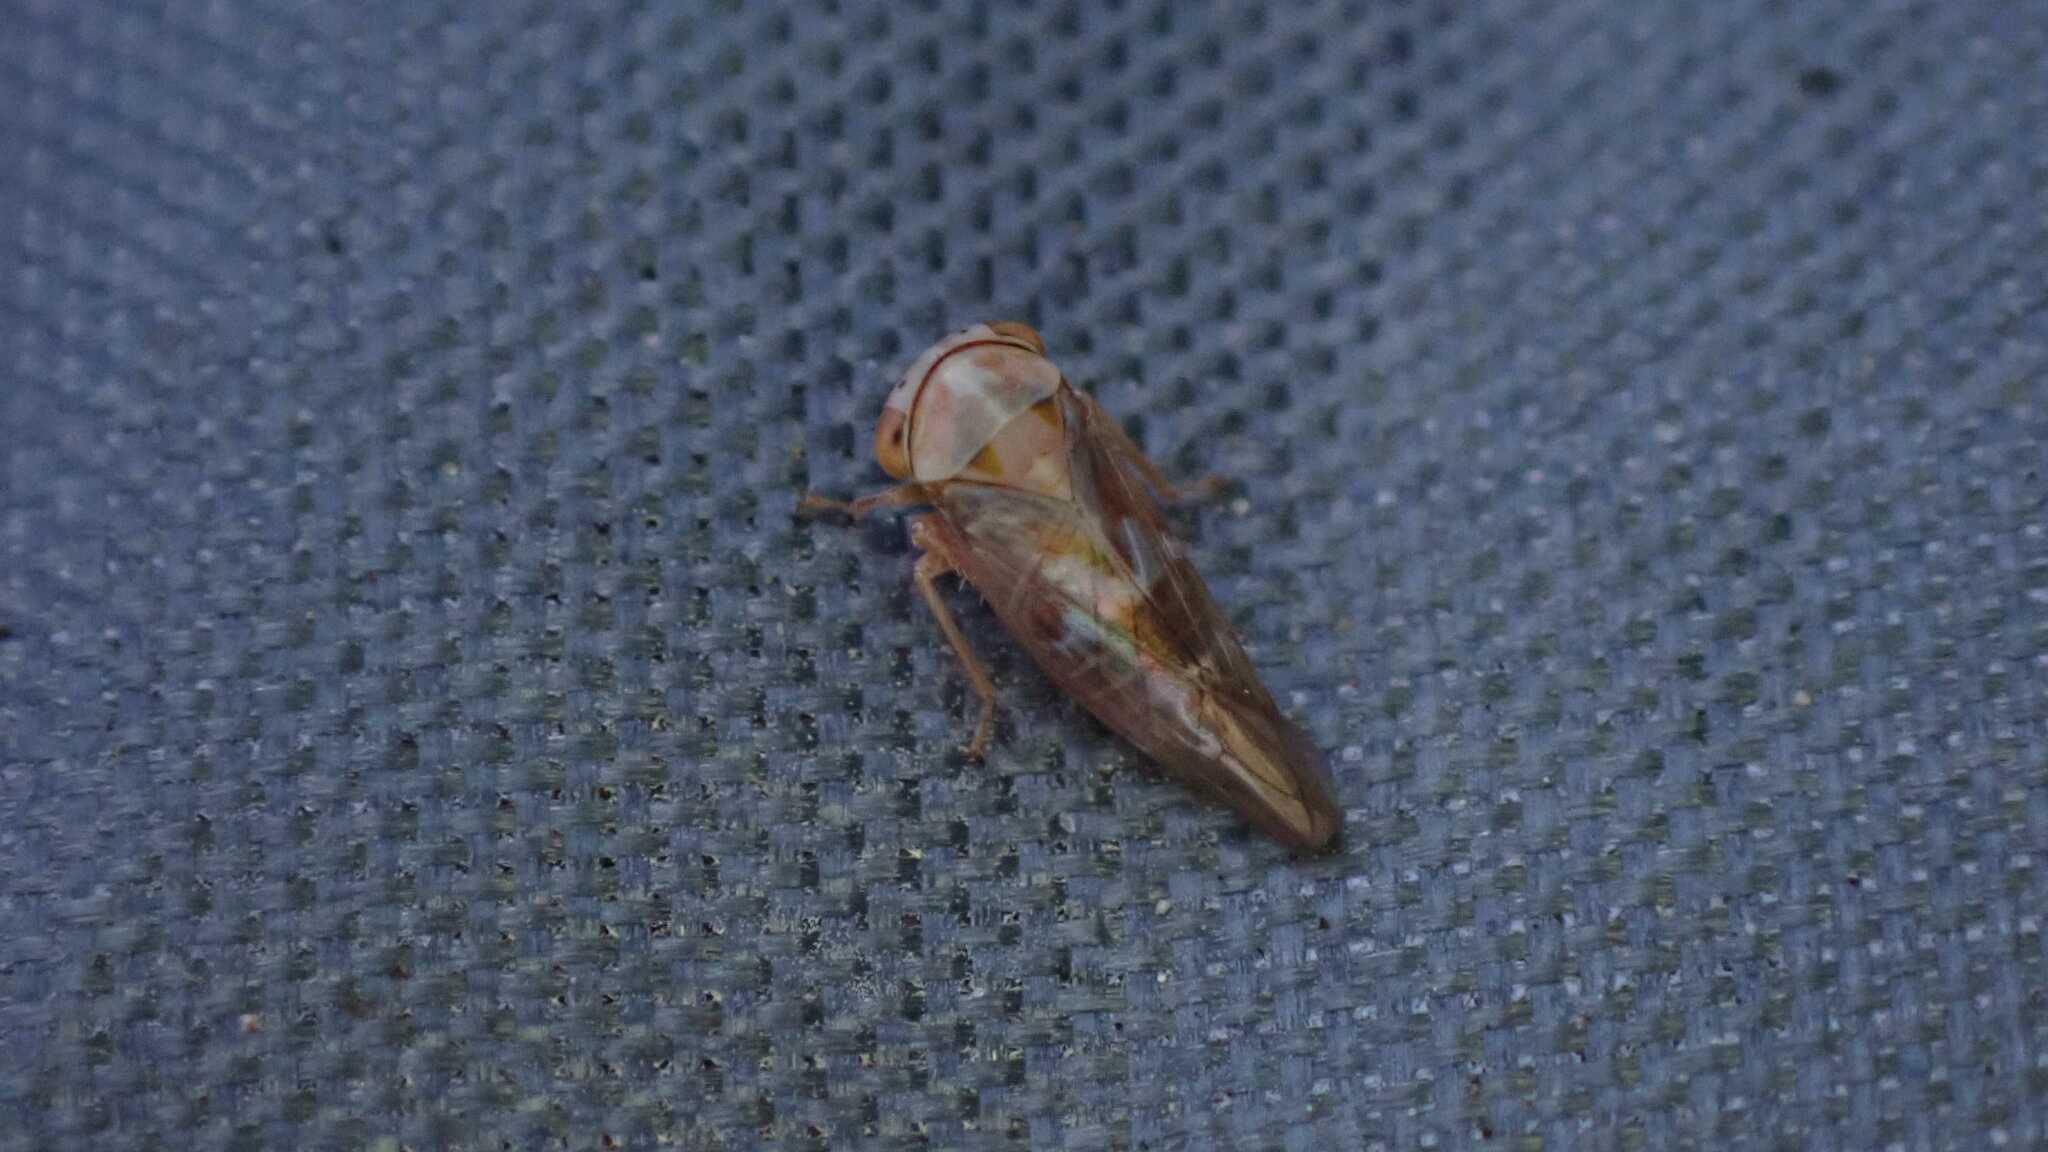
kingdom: Animalia
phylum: Arthropoda
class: Insecta
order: Hemiptera
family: Cicadellidae
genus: Tremulicerus
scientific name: Tremulicerus fulgidus
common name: Leafhopper
